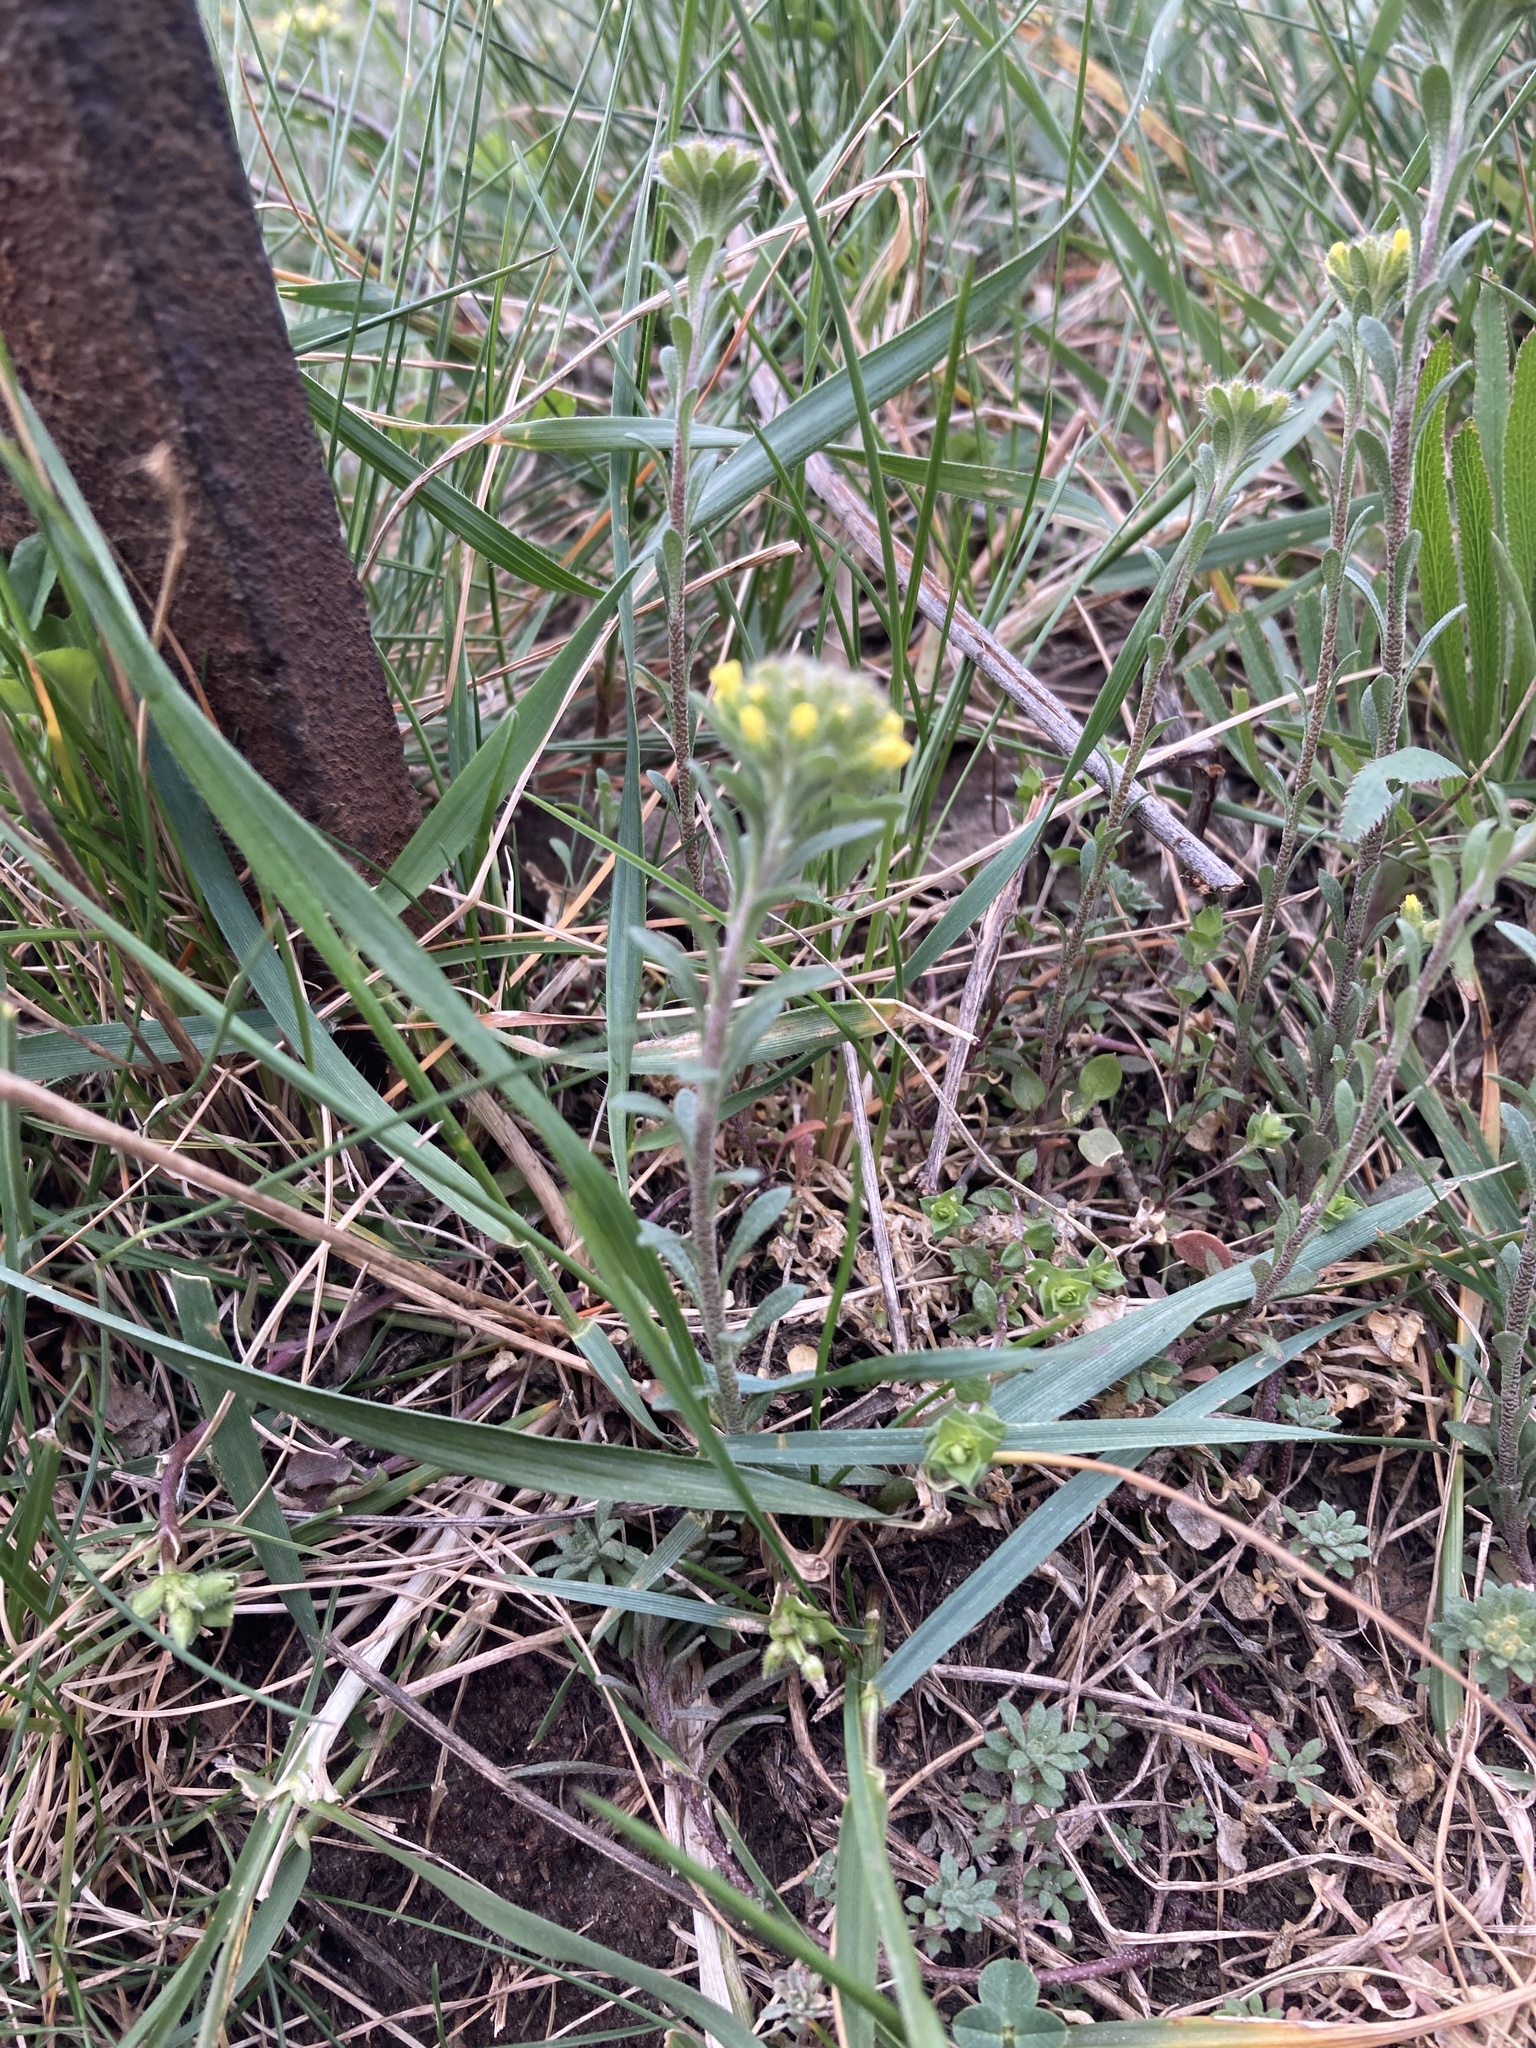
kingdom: Plantae
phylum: Tracheophyta
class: Magnoliopsida
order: Brassicales
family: Brassicaceae
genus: Alyssum
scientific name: Alyssum alyssoides
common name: Small alison
